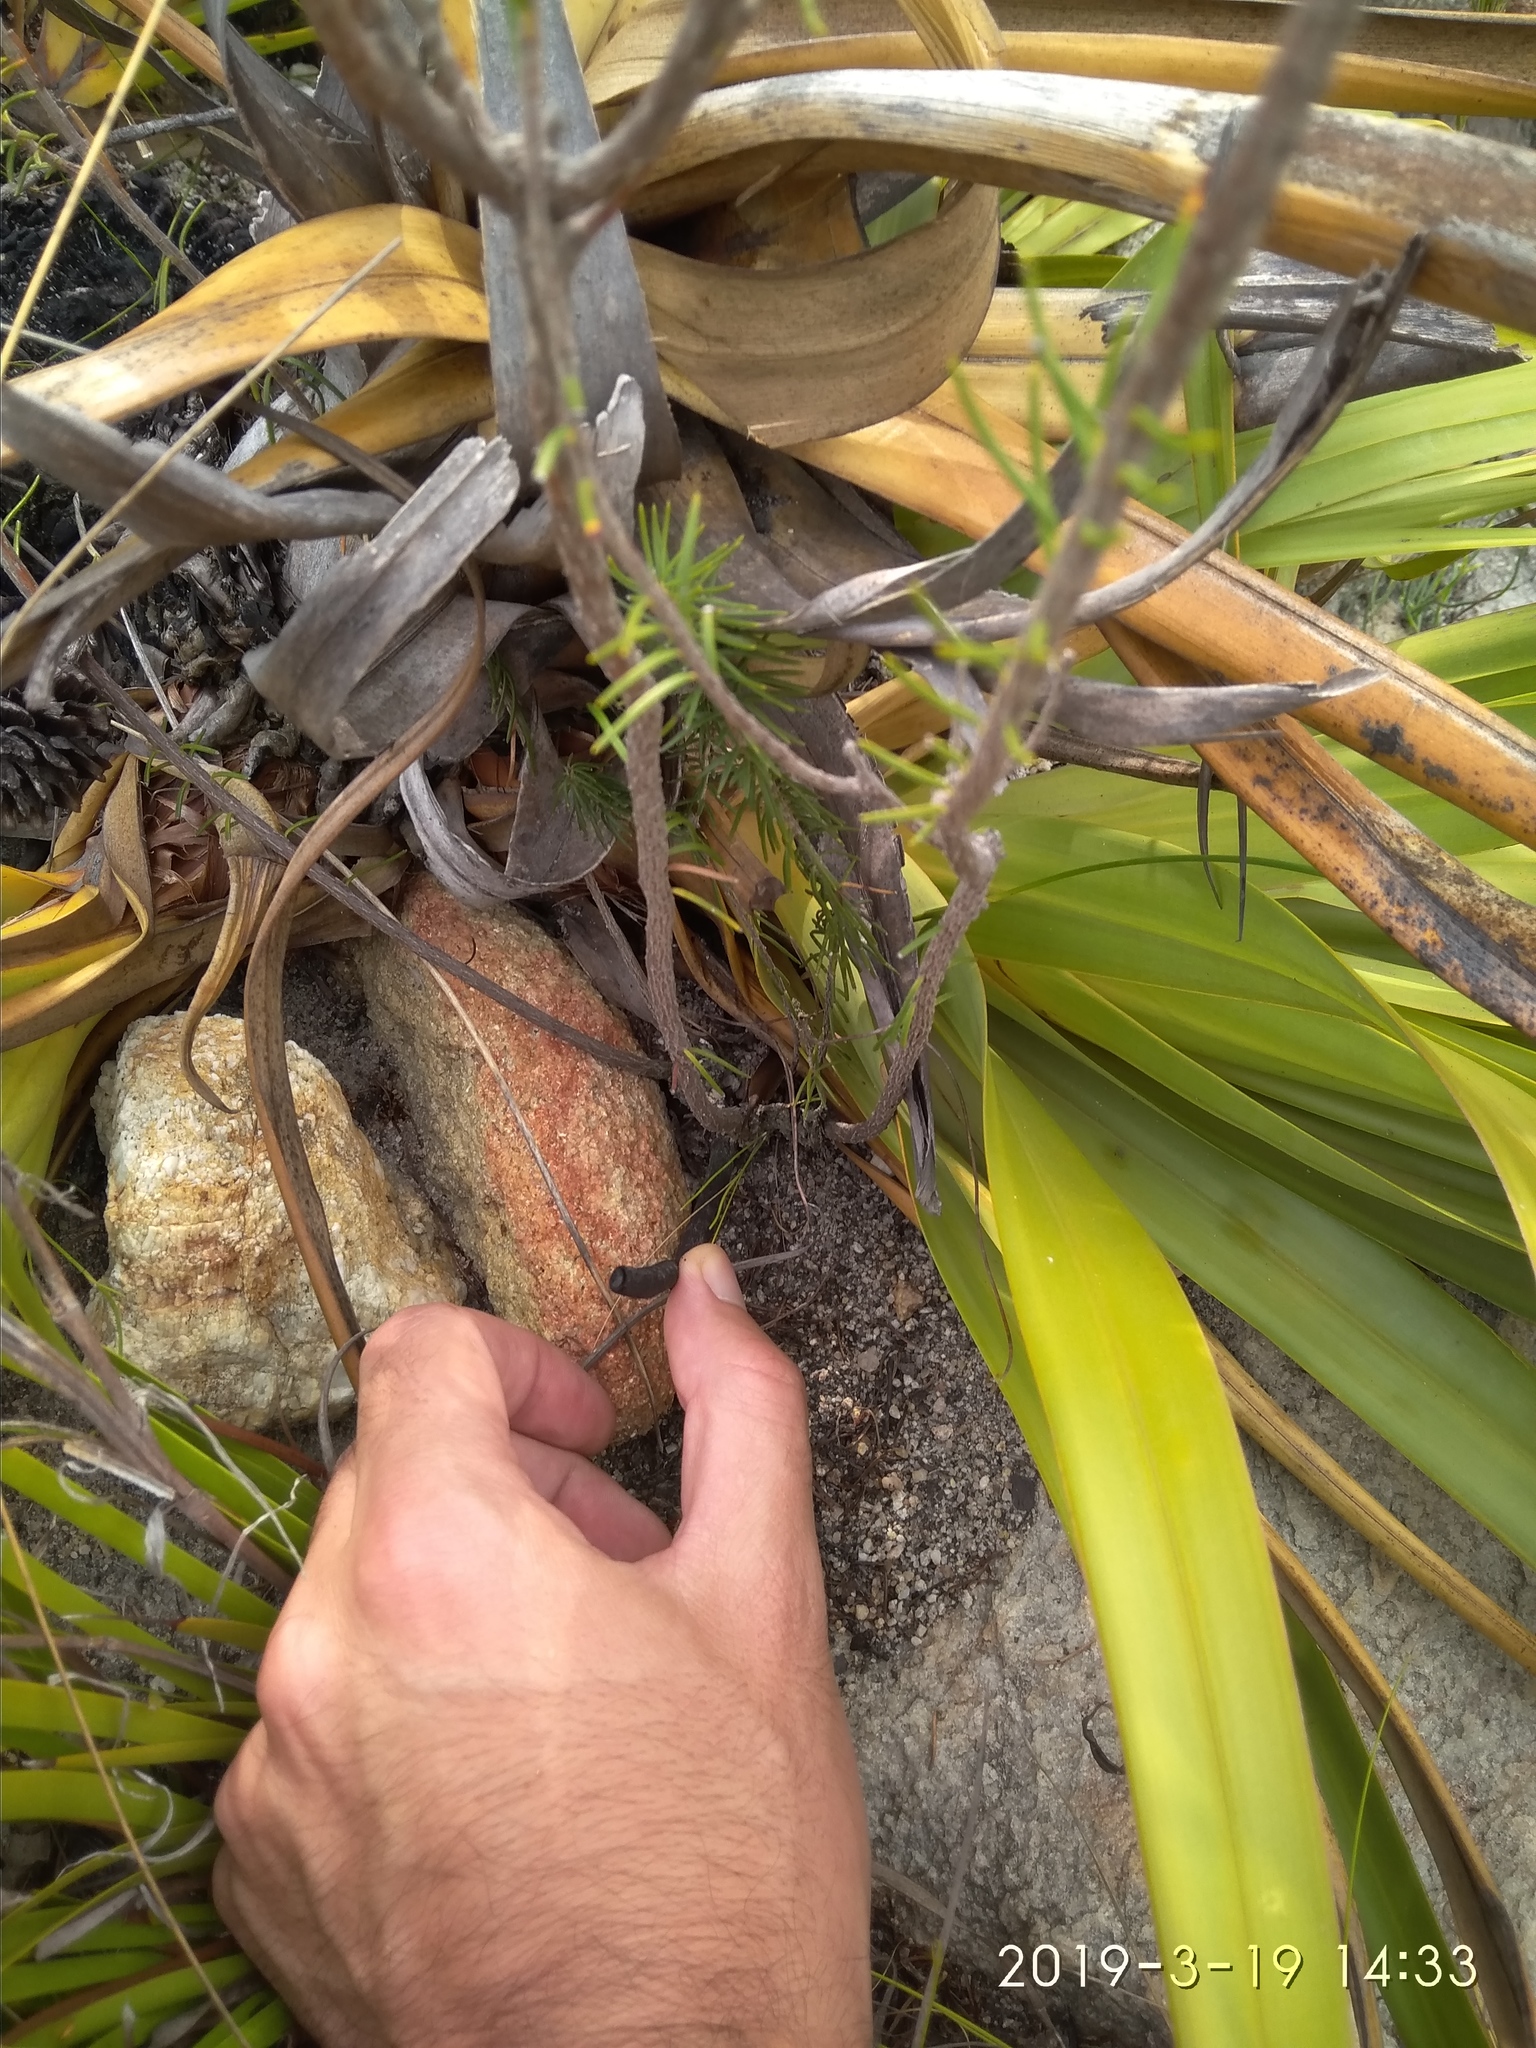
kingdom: Plantae
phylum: Tracheophyta
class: Magnoliopsida
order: Ericales
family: Ericaceae
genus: Erica
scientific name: Erica viscaria
